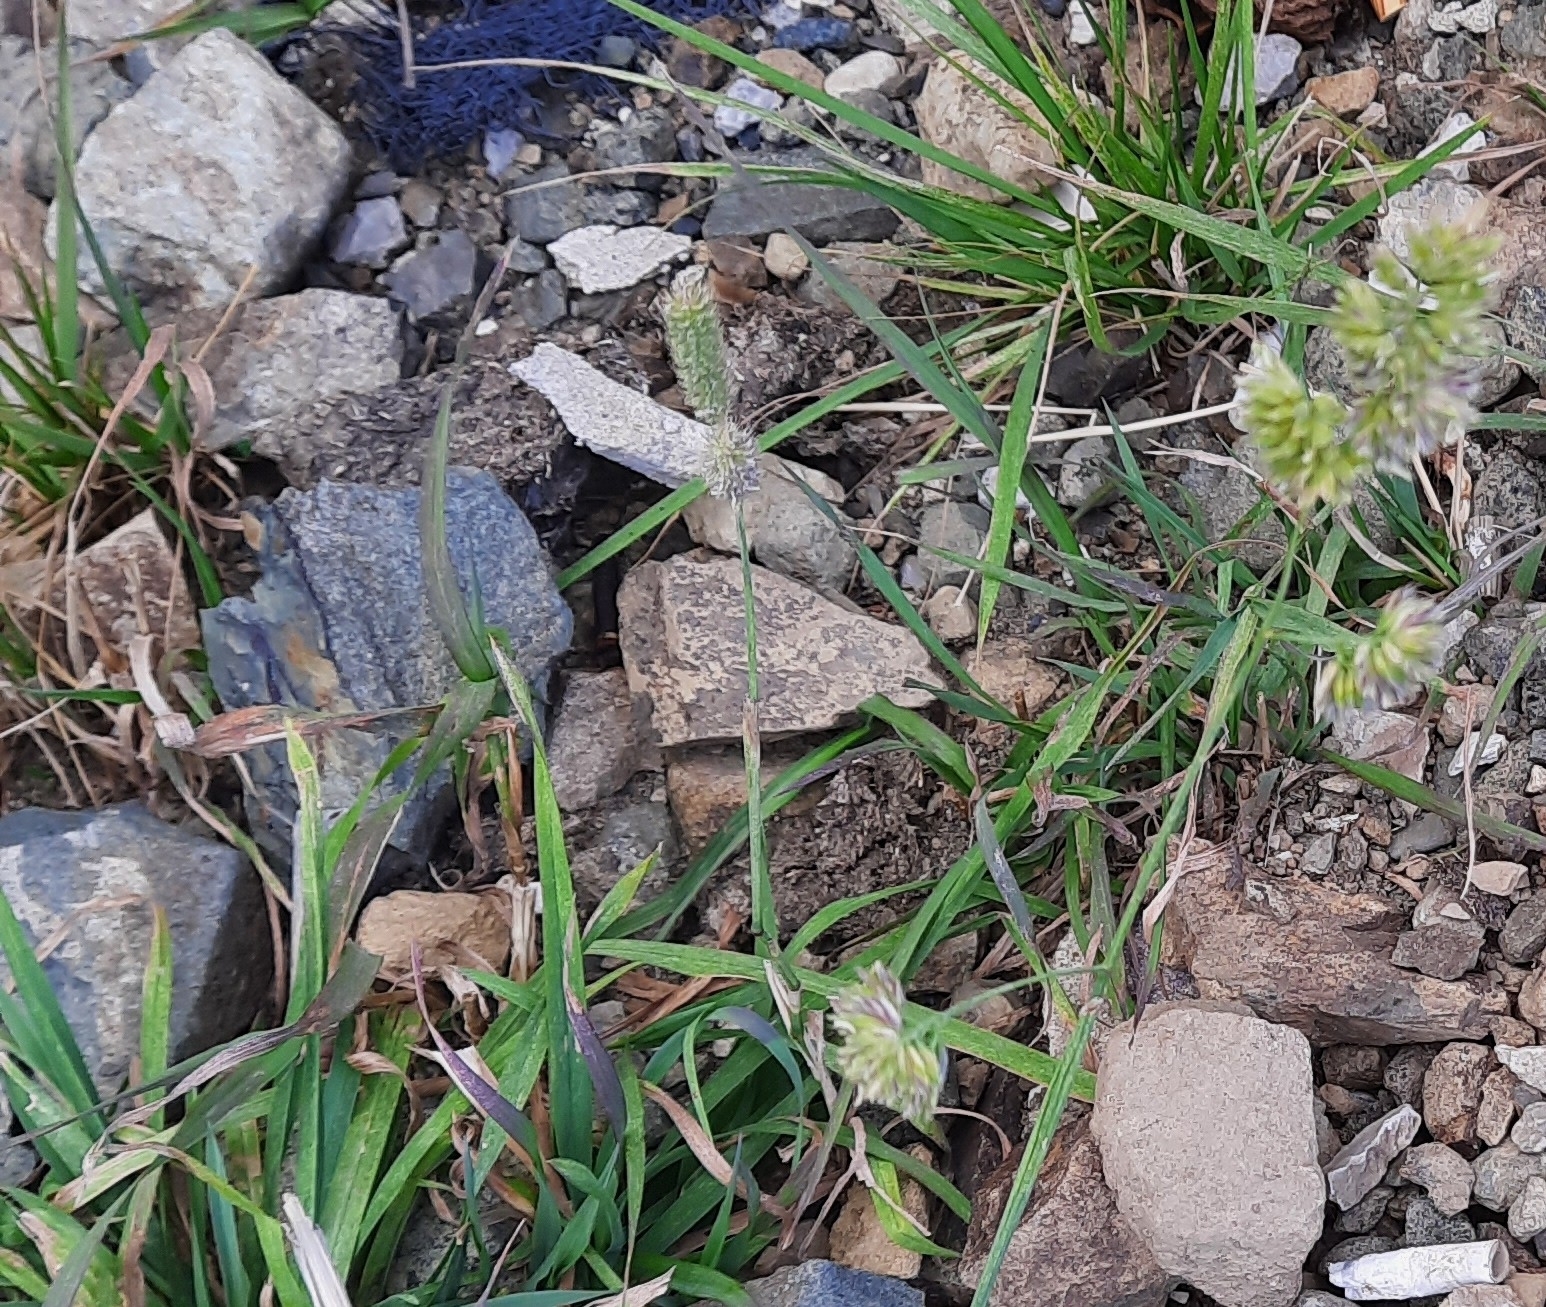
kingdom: Plantae
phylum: Tracheophyta
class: Liliopsida
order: Poales
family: Poaceae
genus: Dactylis
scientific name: Dactylis glomerata
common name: Orchardgrass
